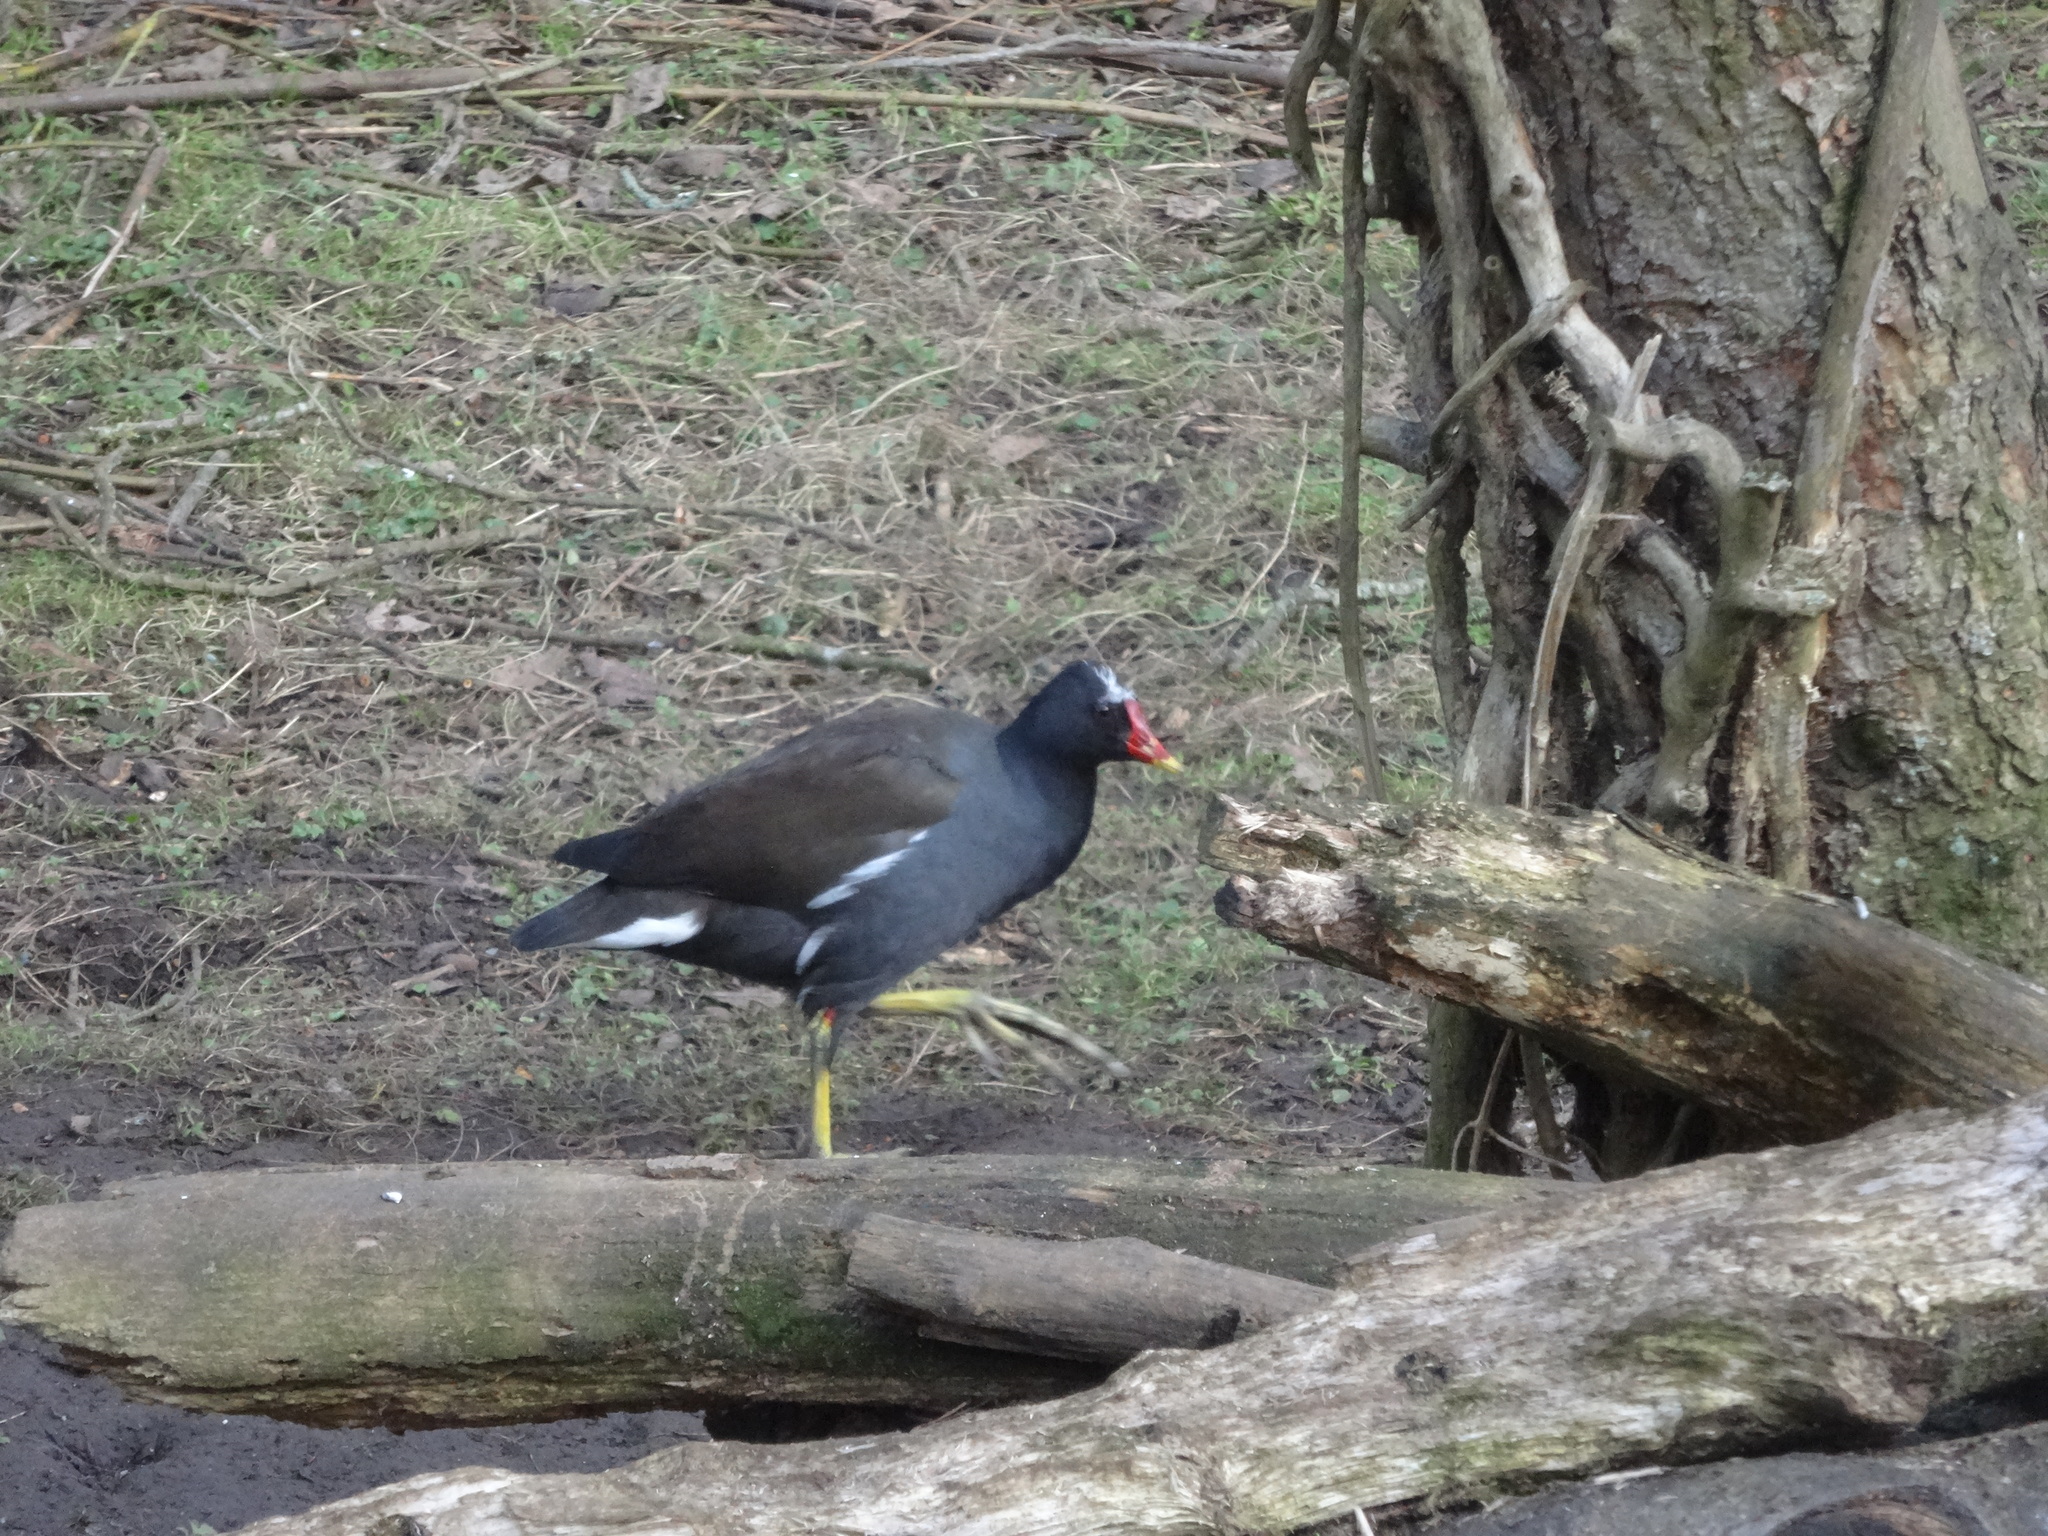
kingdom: Animalia
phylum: Chordata
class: Aves
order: Gruiformes
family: Rallidae
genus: Gallinula
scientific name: Gallinula chloropus
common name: Common moorhen
